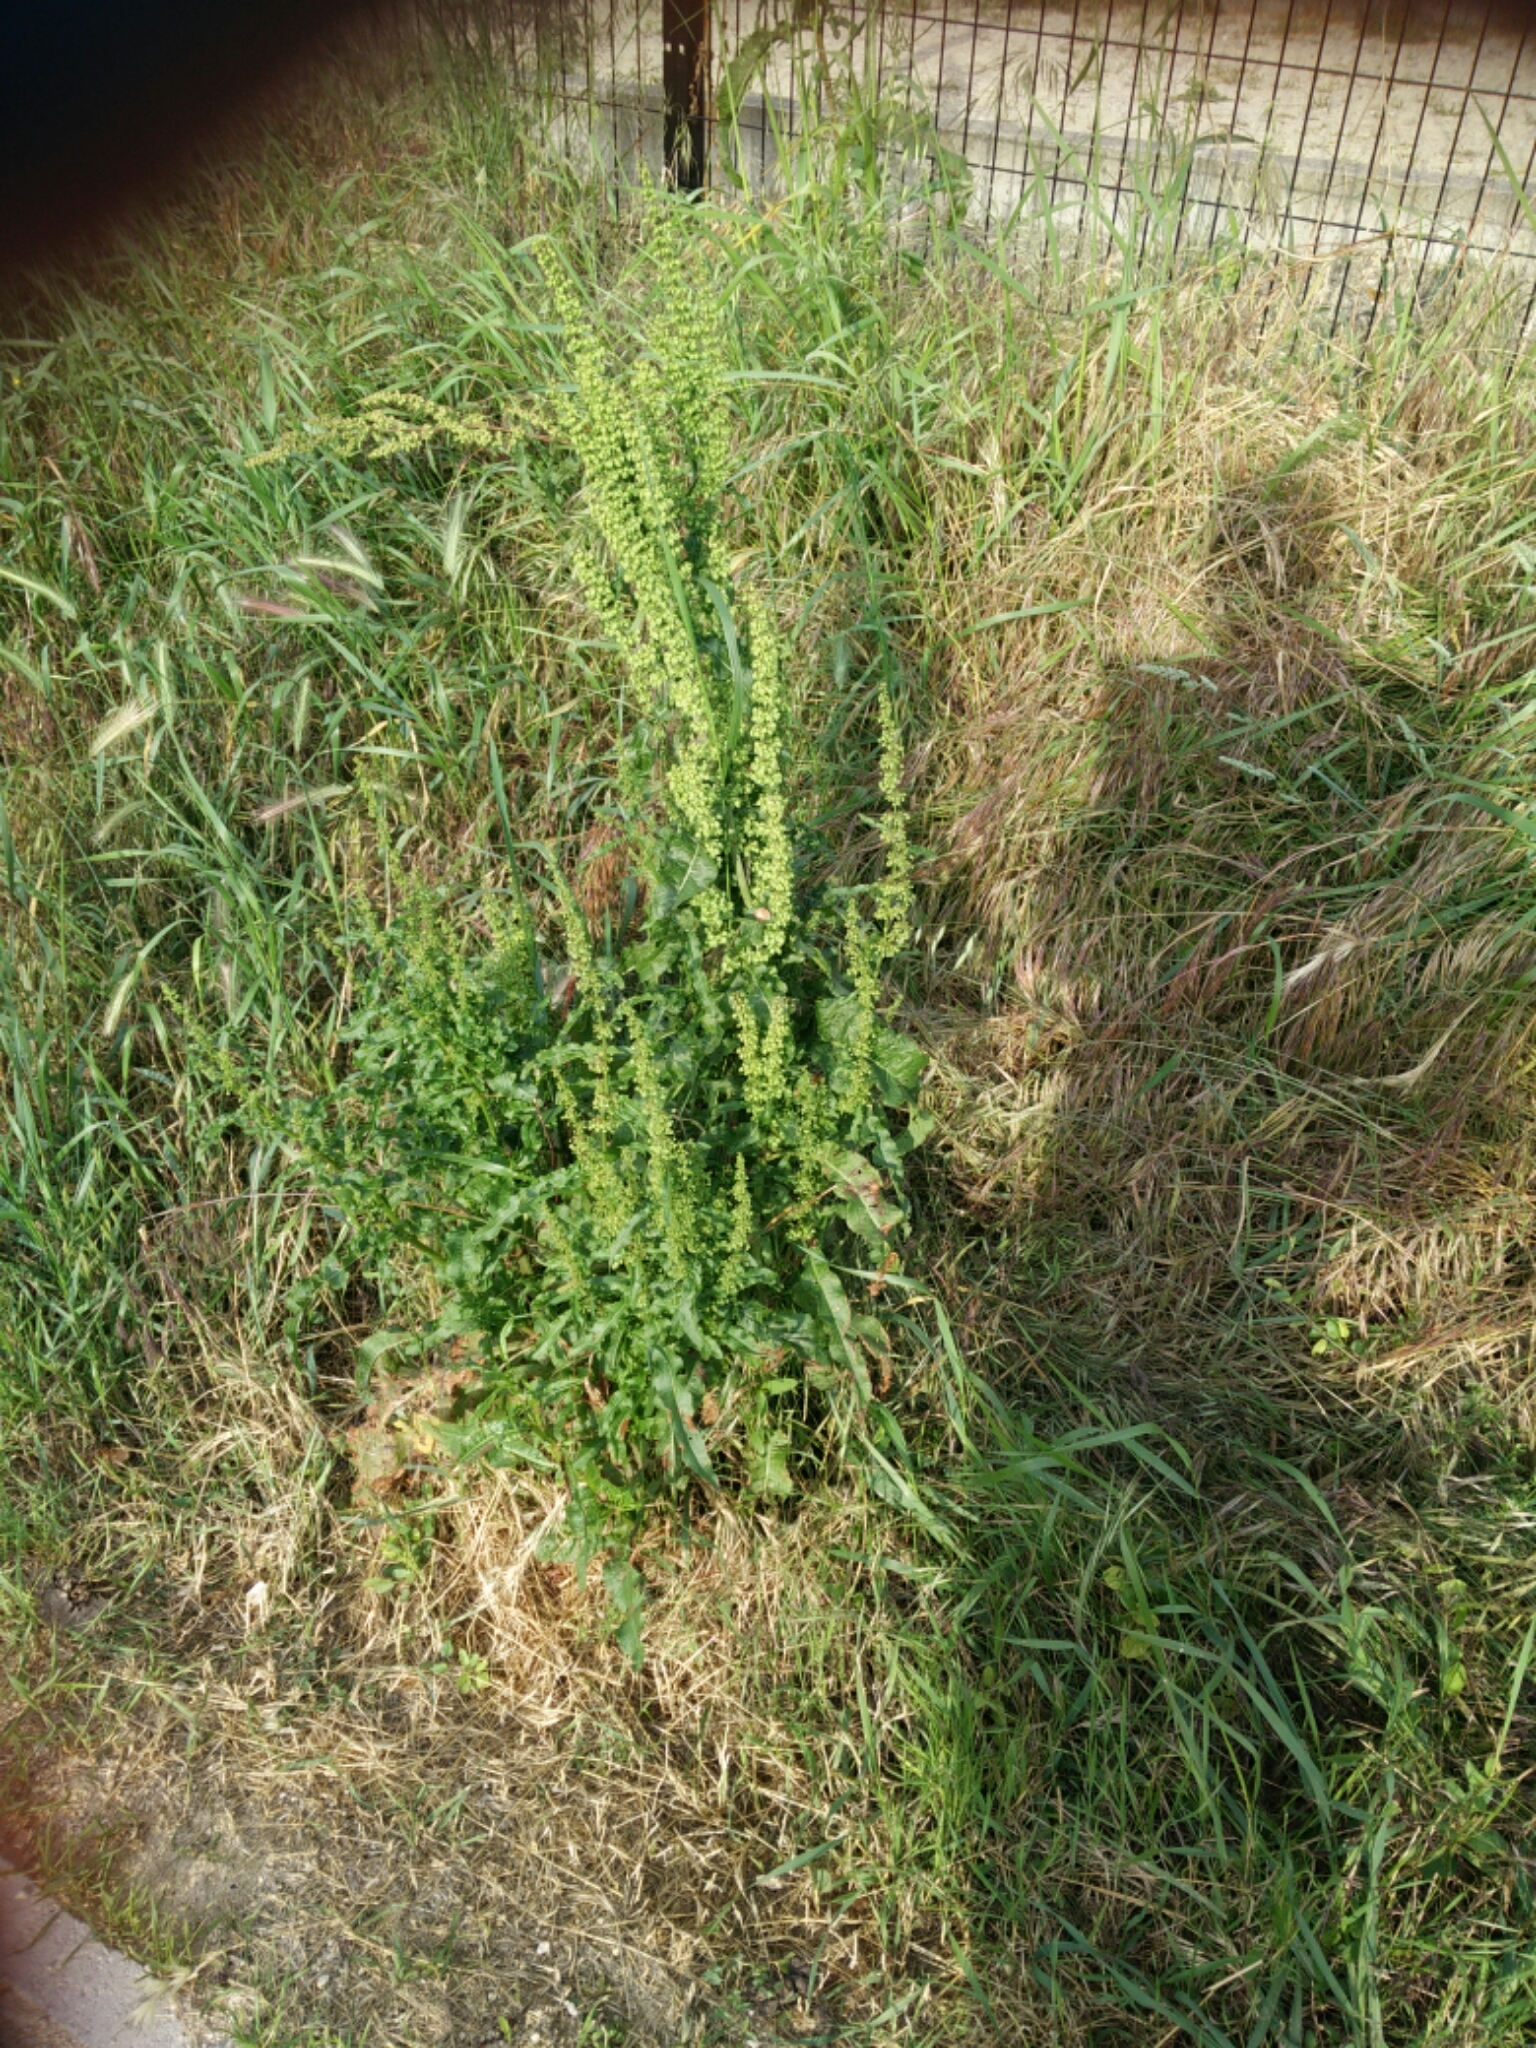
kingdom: Plantae
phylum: Tracheophyta
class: Magnoliopsida
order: Caryophyllales
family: Polygonaceae
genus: Rumex
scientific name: Rumex crispus
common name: Curled dock
